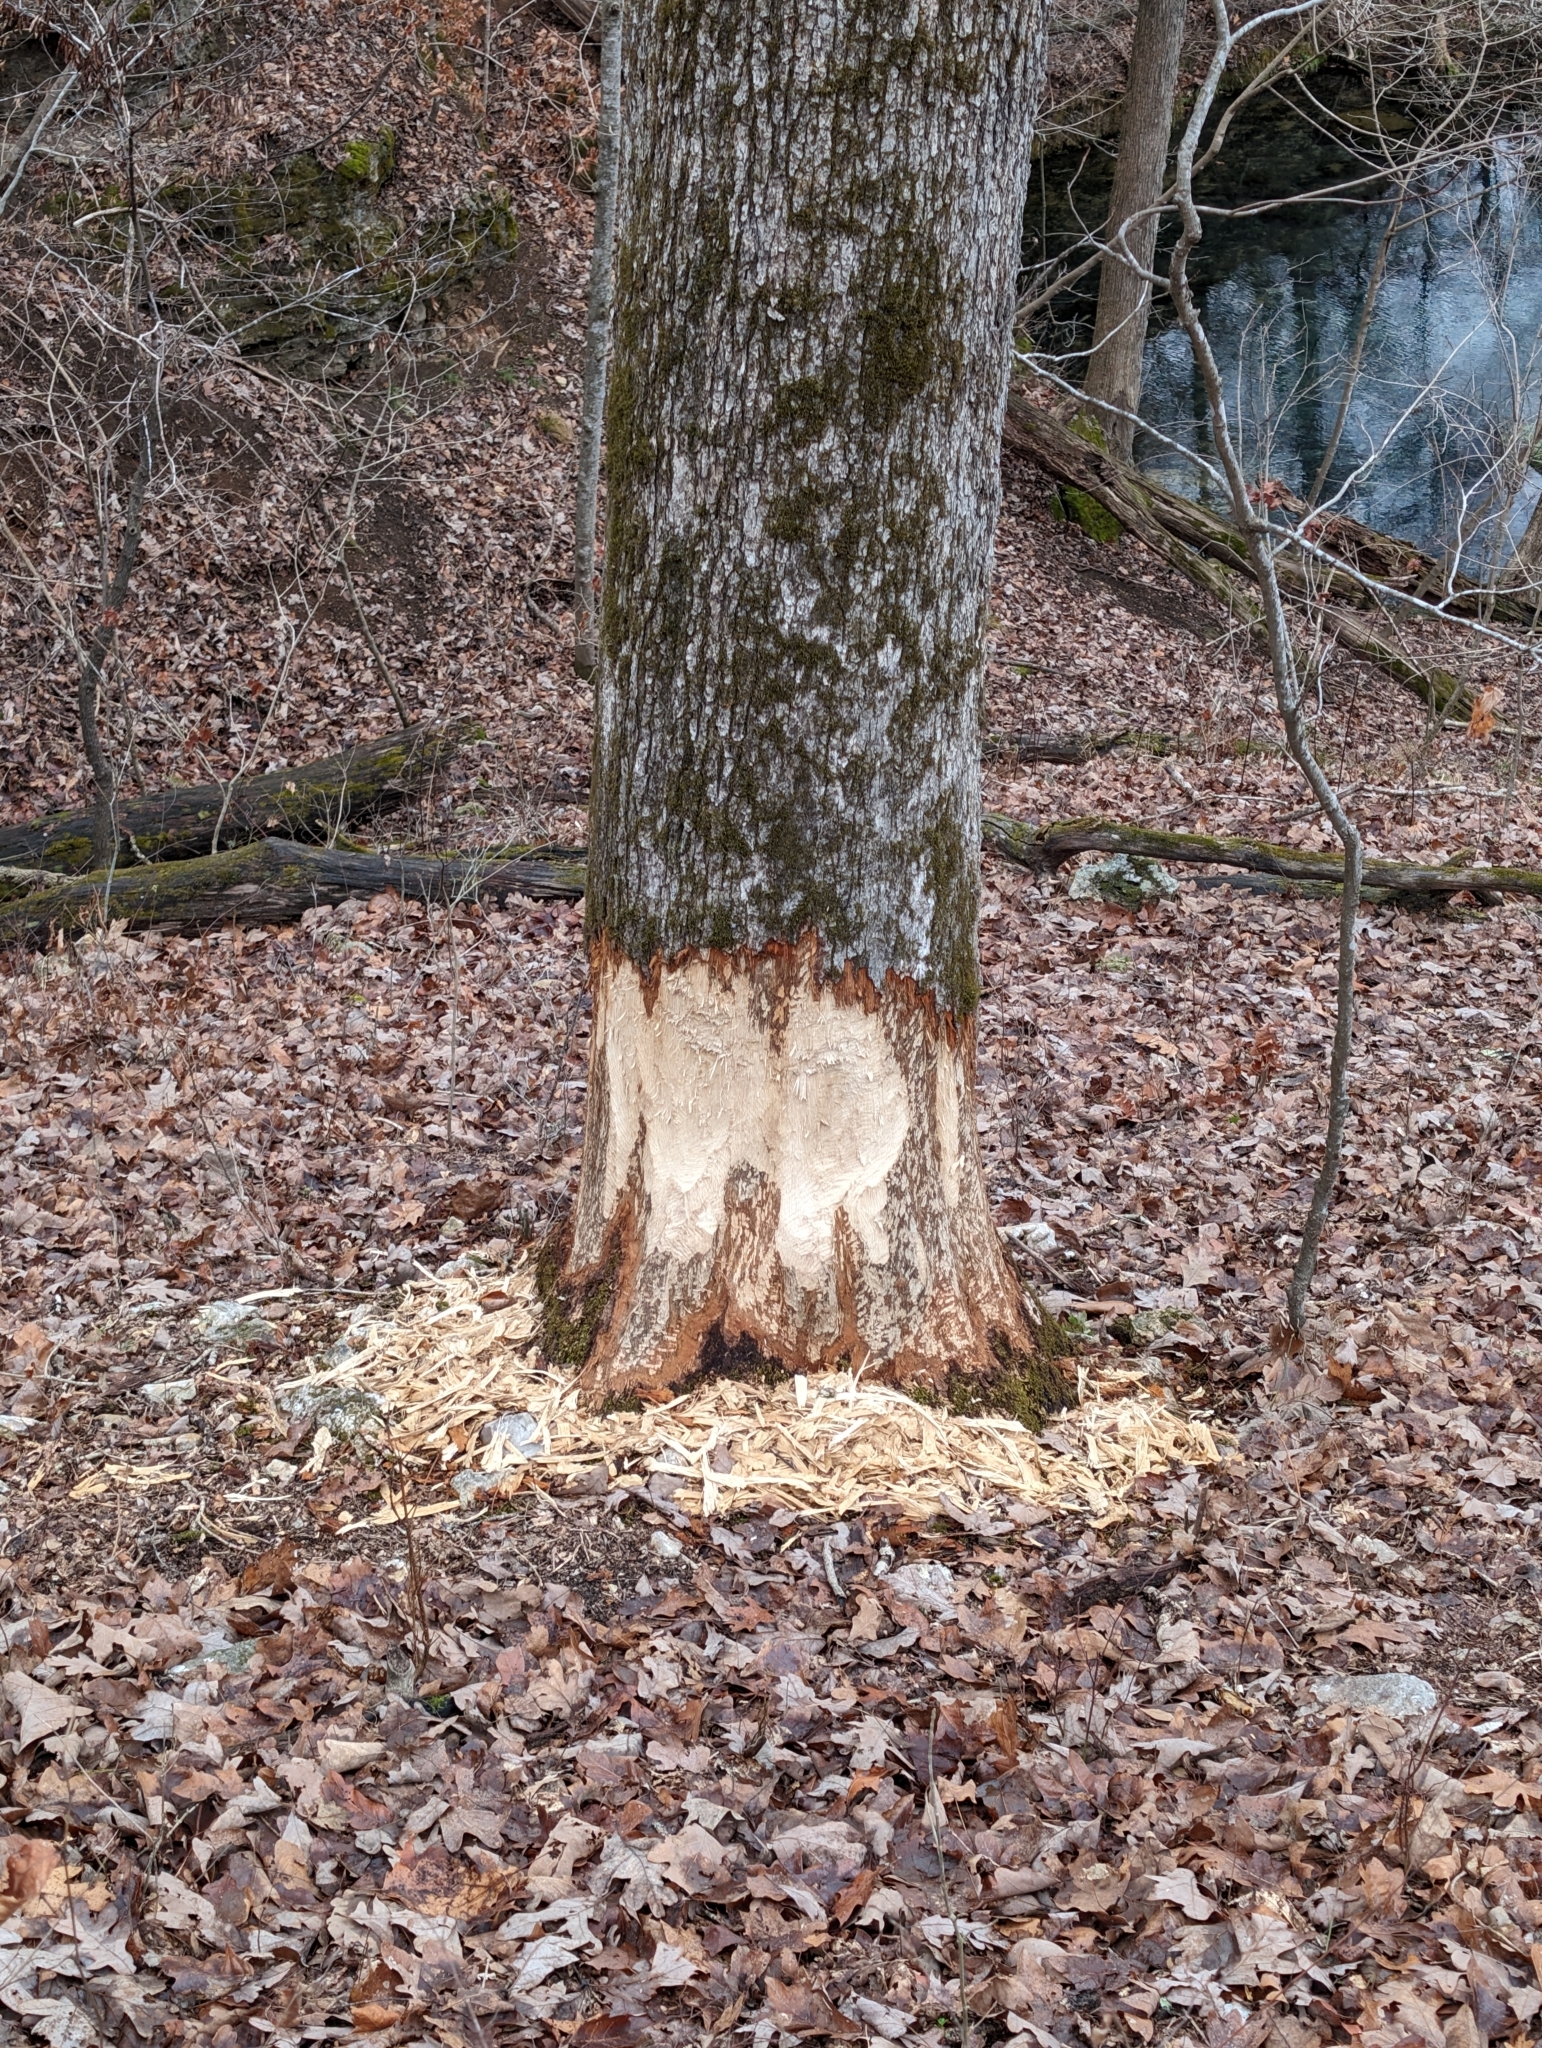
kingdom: Animalia
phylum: Chordata
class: Mammalia
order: Rodentia
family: Castoridae
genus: Castor
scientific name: Castor canadensis
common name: American beaver
